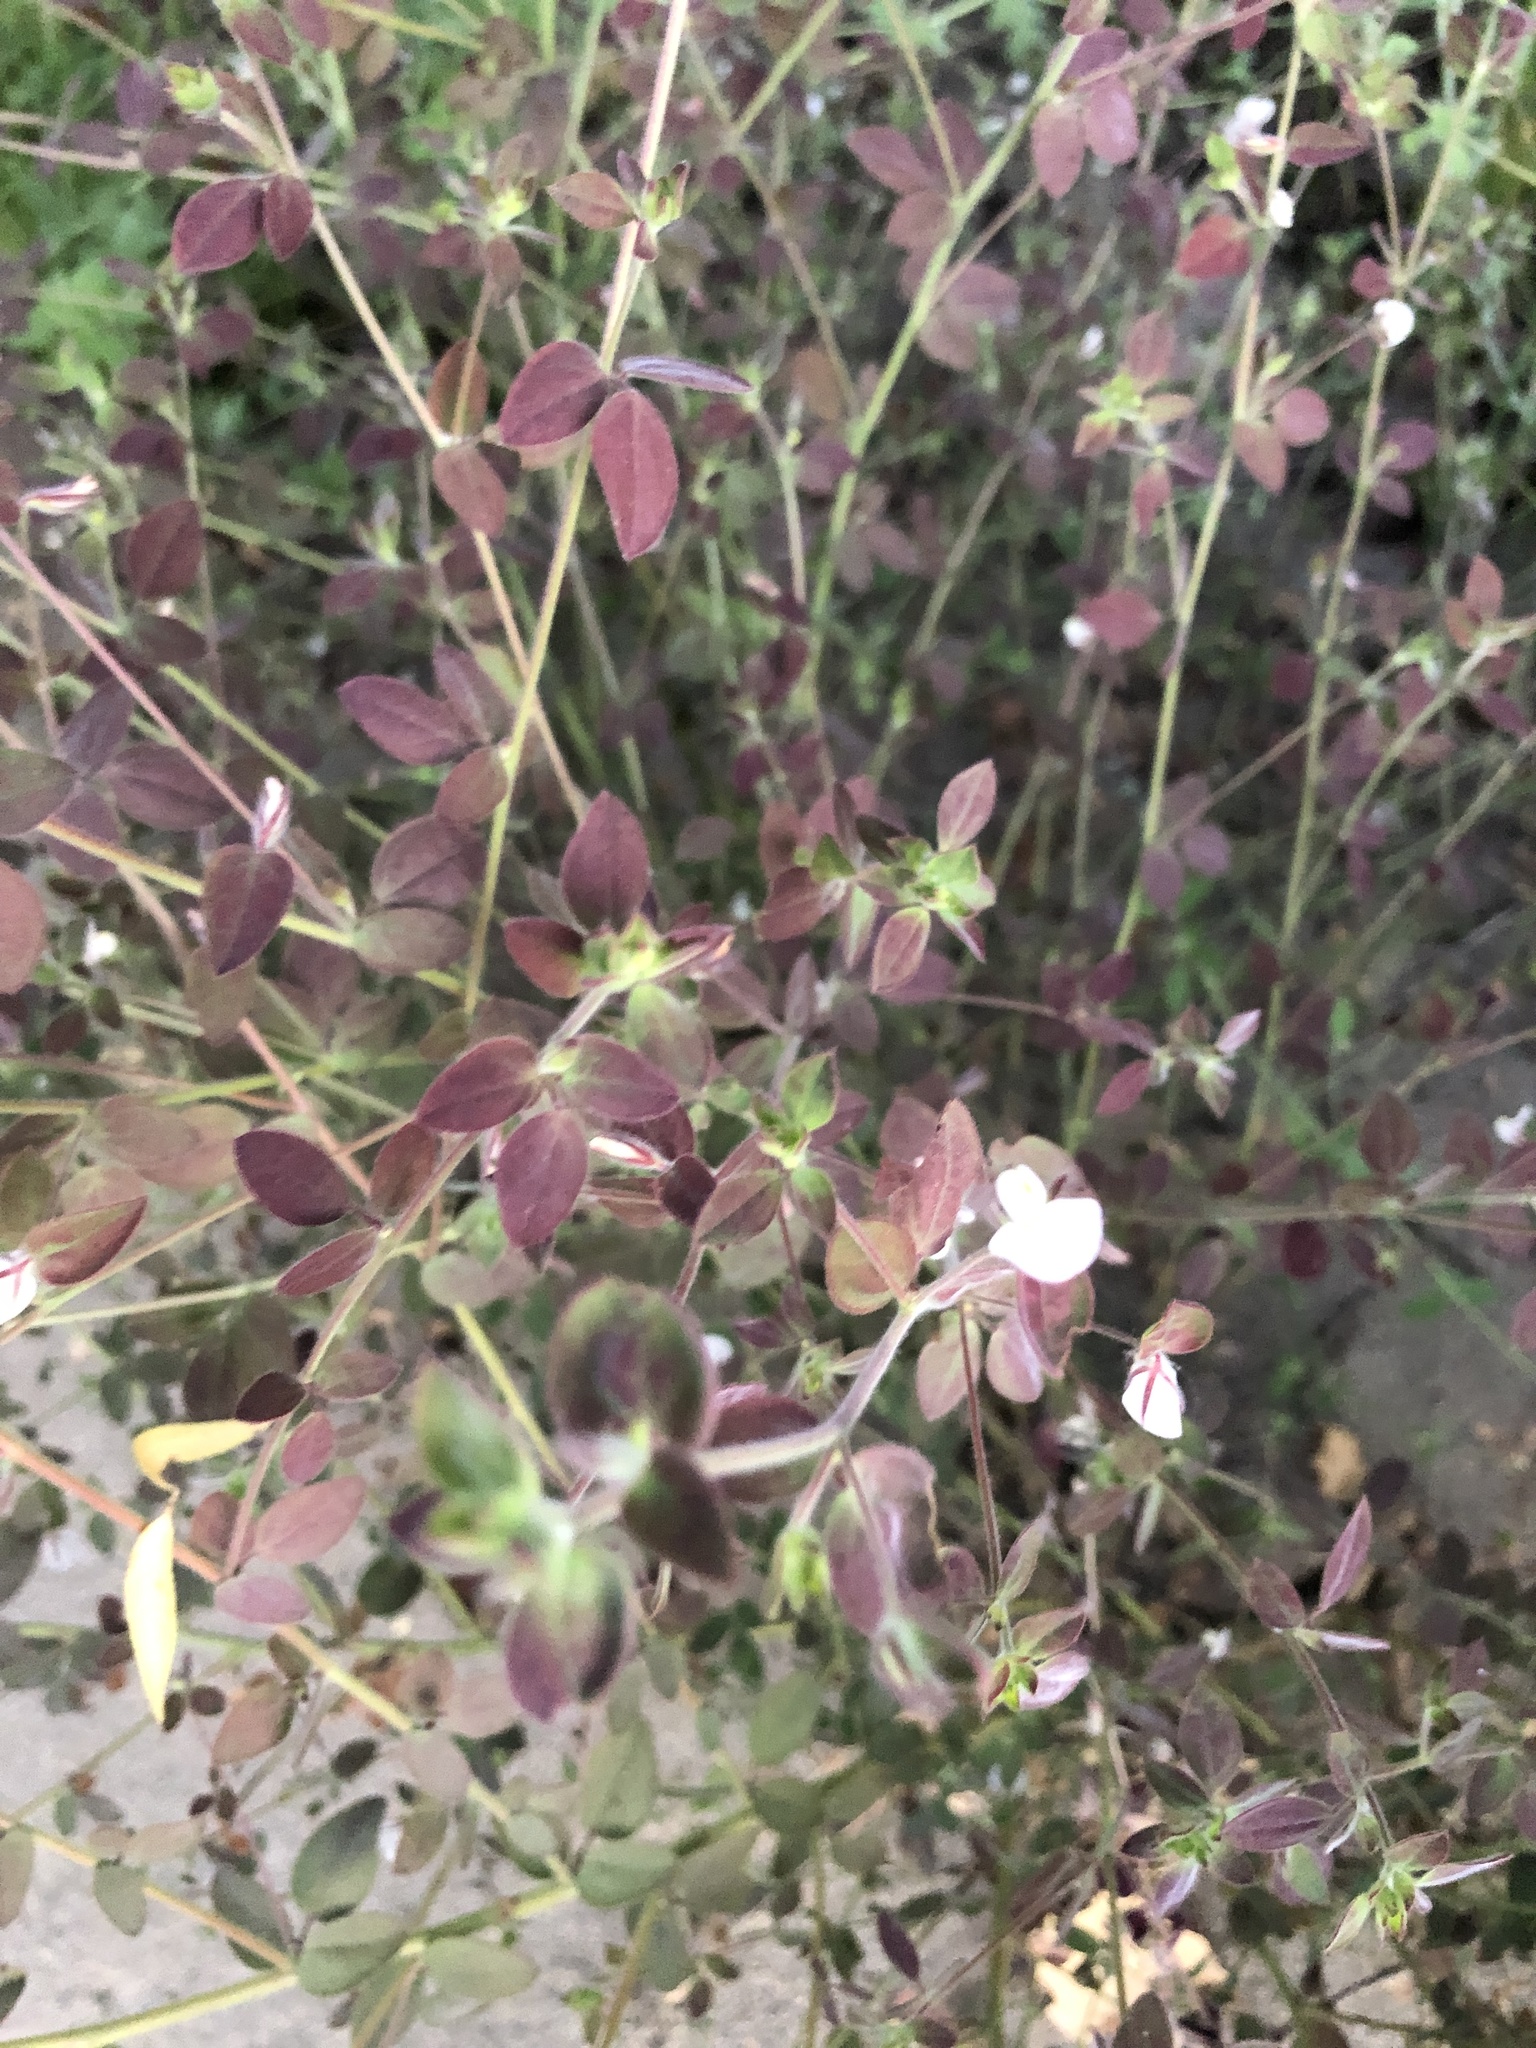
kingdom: Plantae
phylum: Tracheophyta
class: Magnoliopsida
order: Fabales
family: Fabaceae
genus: Acmispon
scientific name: Acmispon americanus
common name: American bird's-foot trefoil
